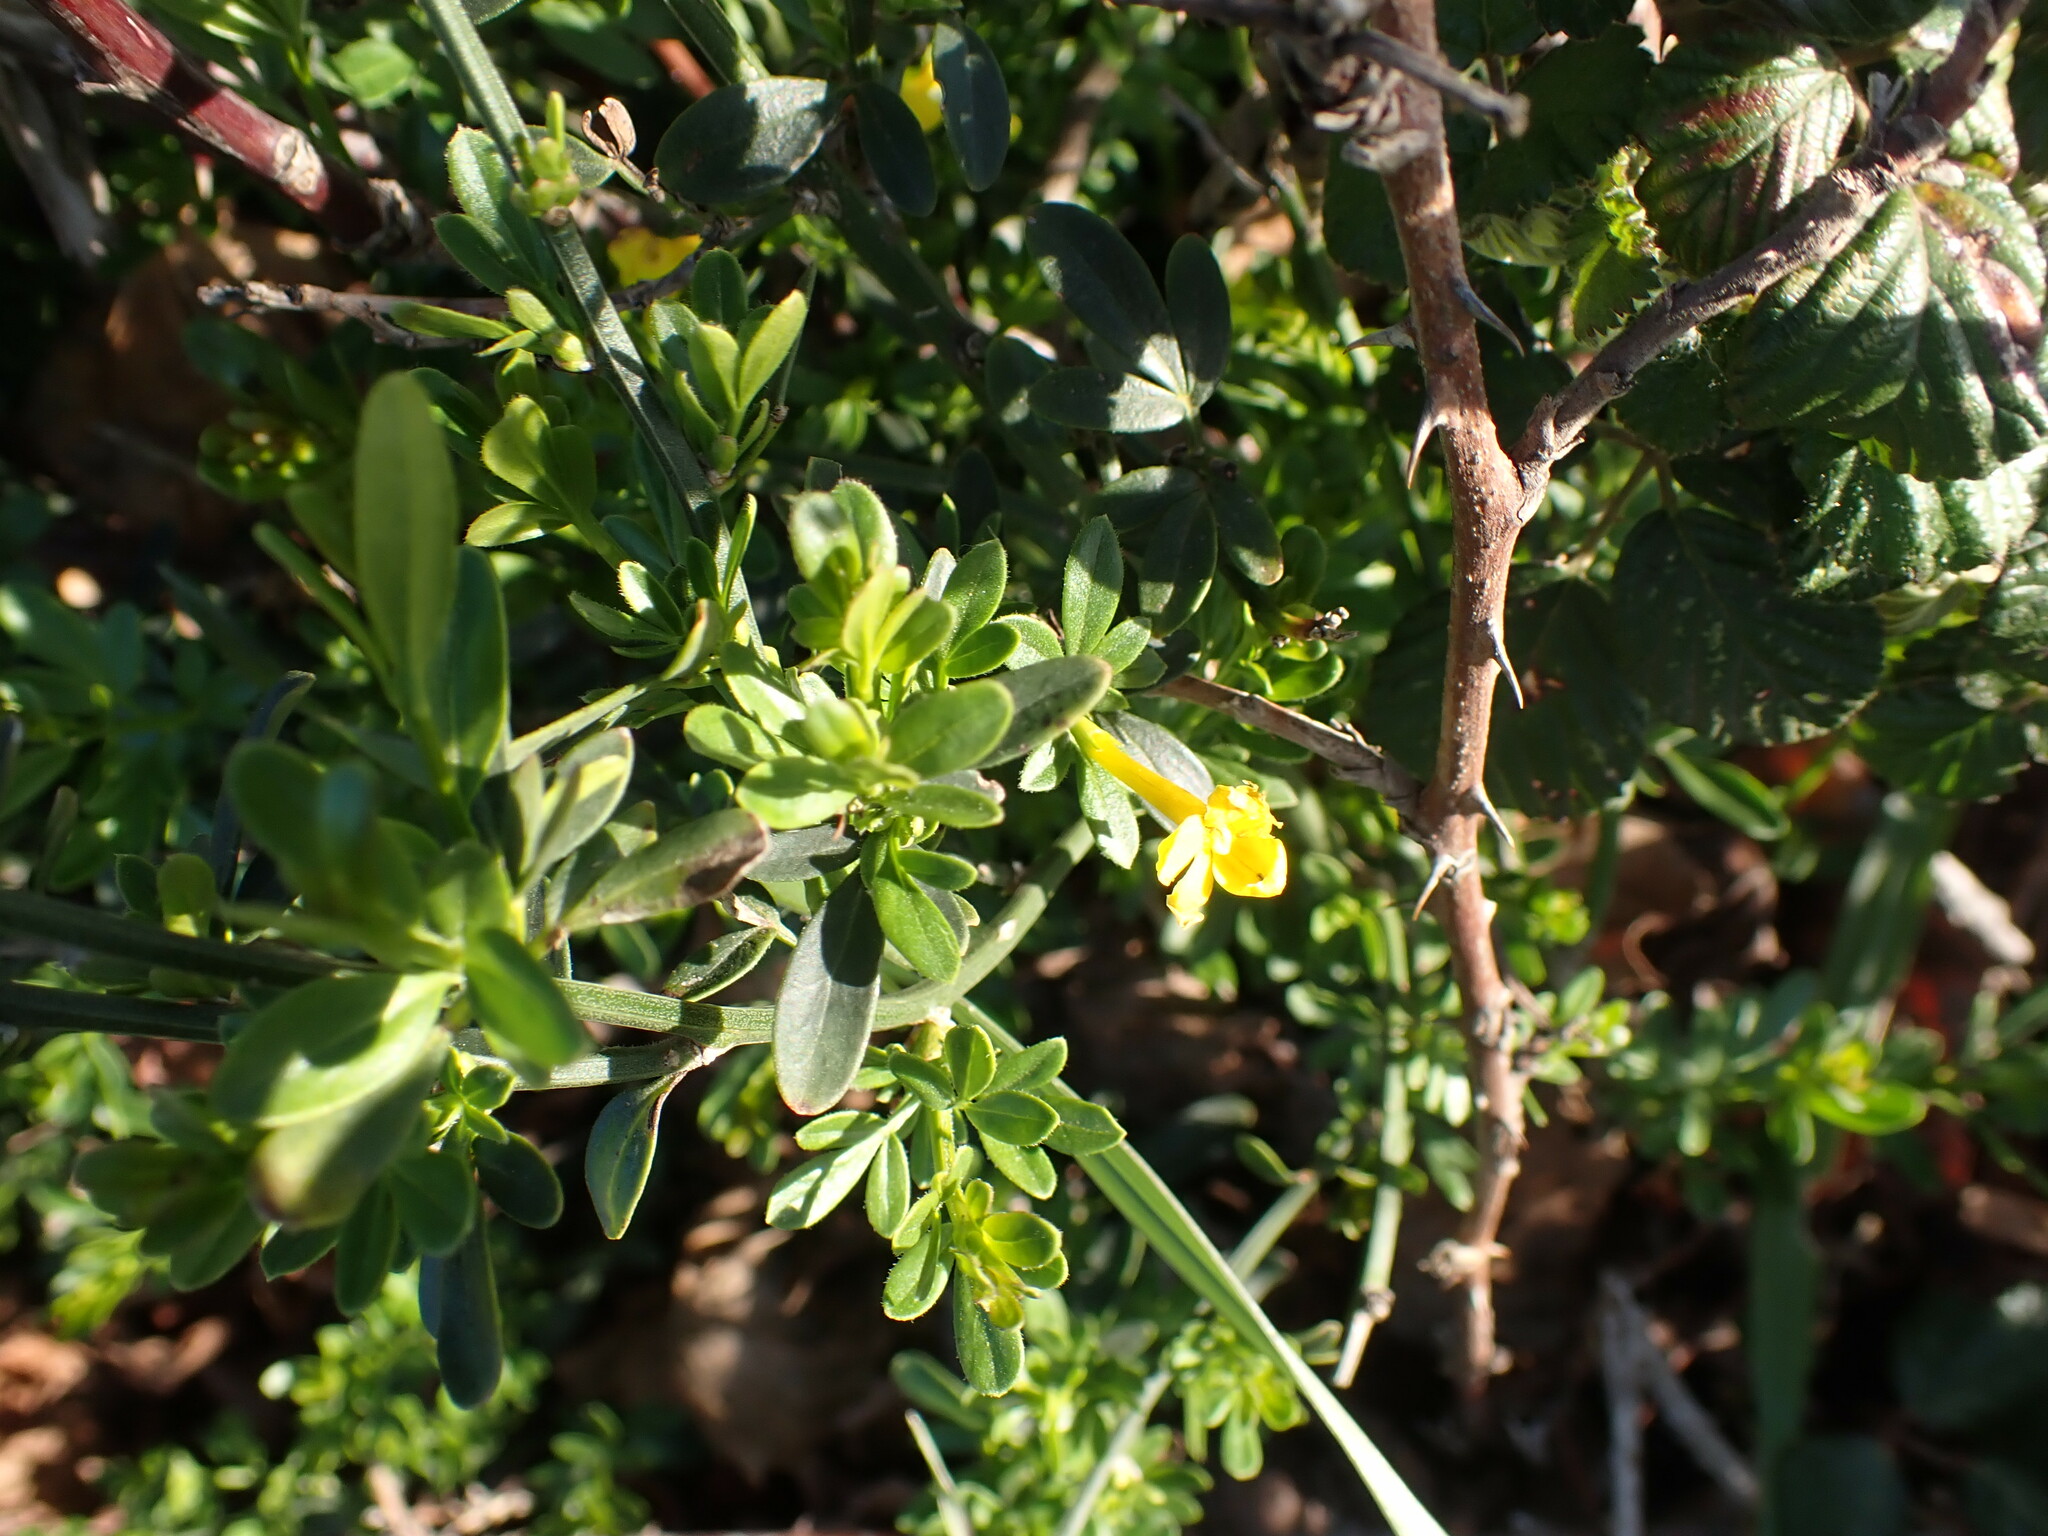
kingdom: Plantae
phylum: Tracheophyta
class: Magnoliopsida
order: Lamiales
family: Oleaceae
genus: Chrysojasminum
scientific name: Chrysojasminum fruticans
